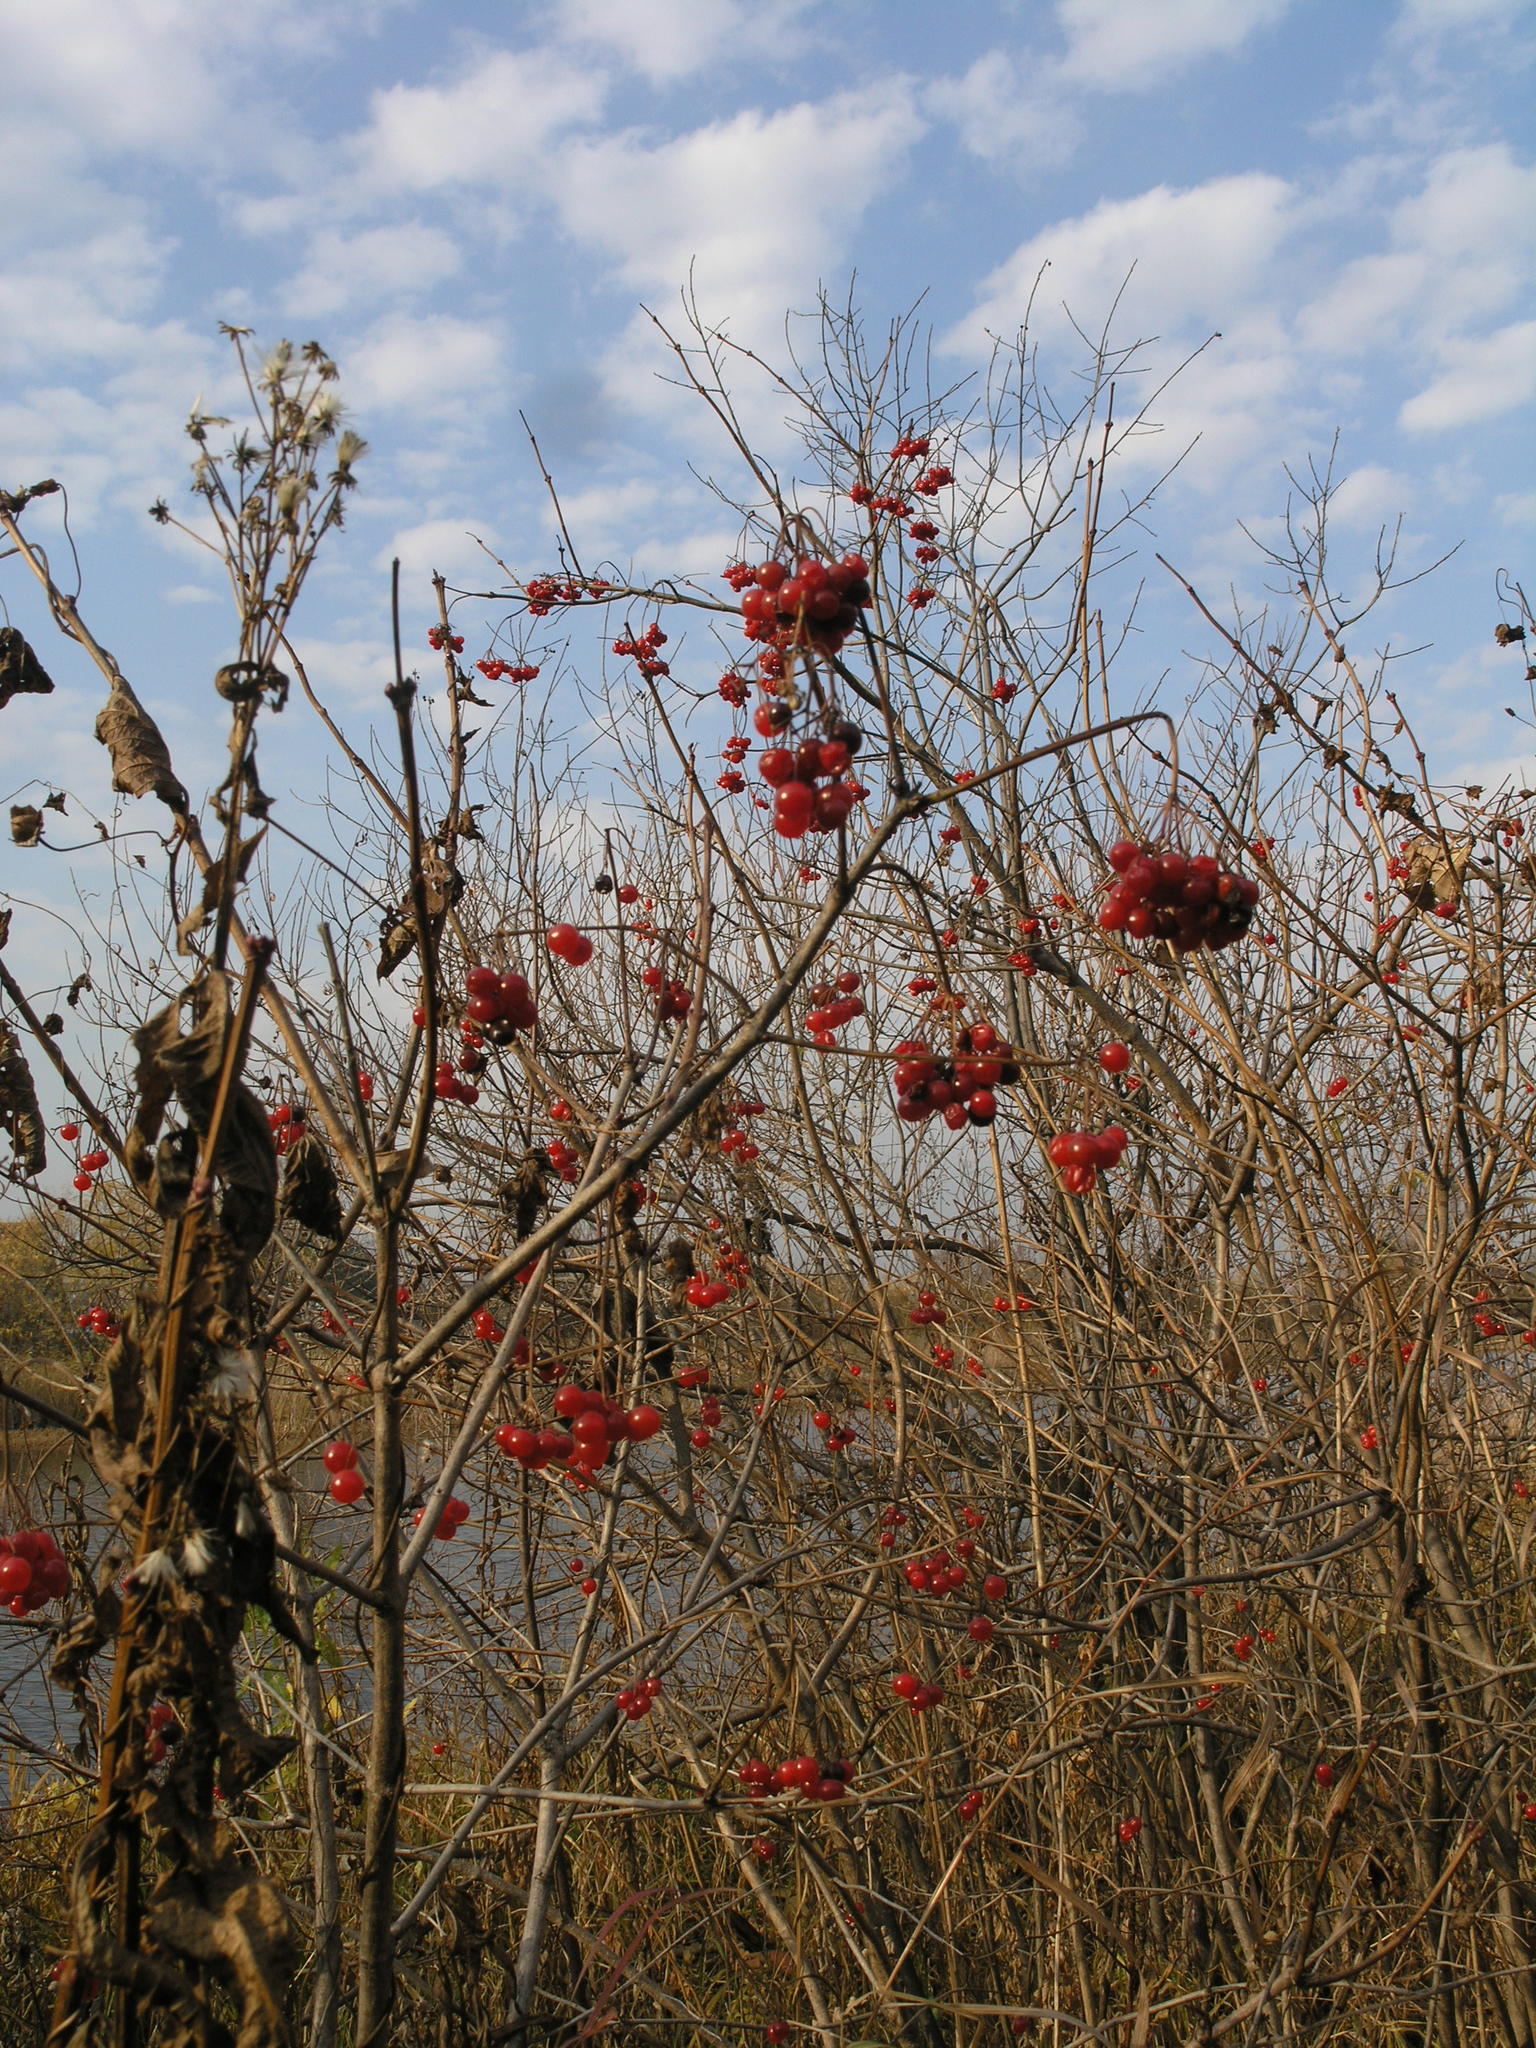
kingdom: Plantae
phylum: Tracheophyta
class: Magnoliopsida
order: Dipsacales
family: Viburnaceae
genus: Viburnum
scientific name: Viburnum opulus
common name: Guelder-rose
